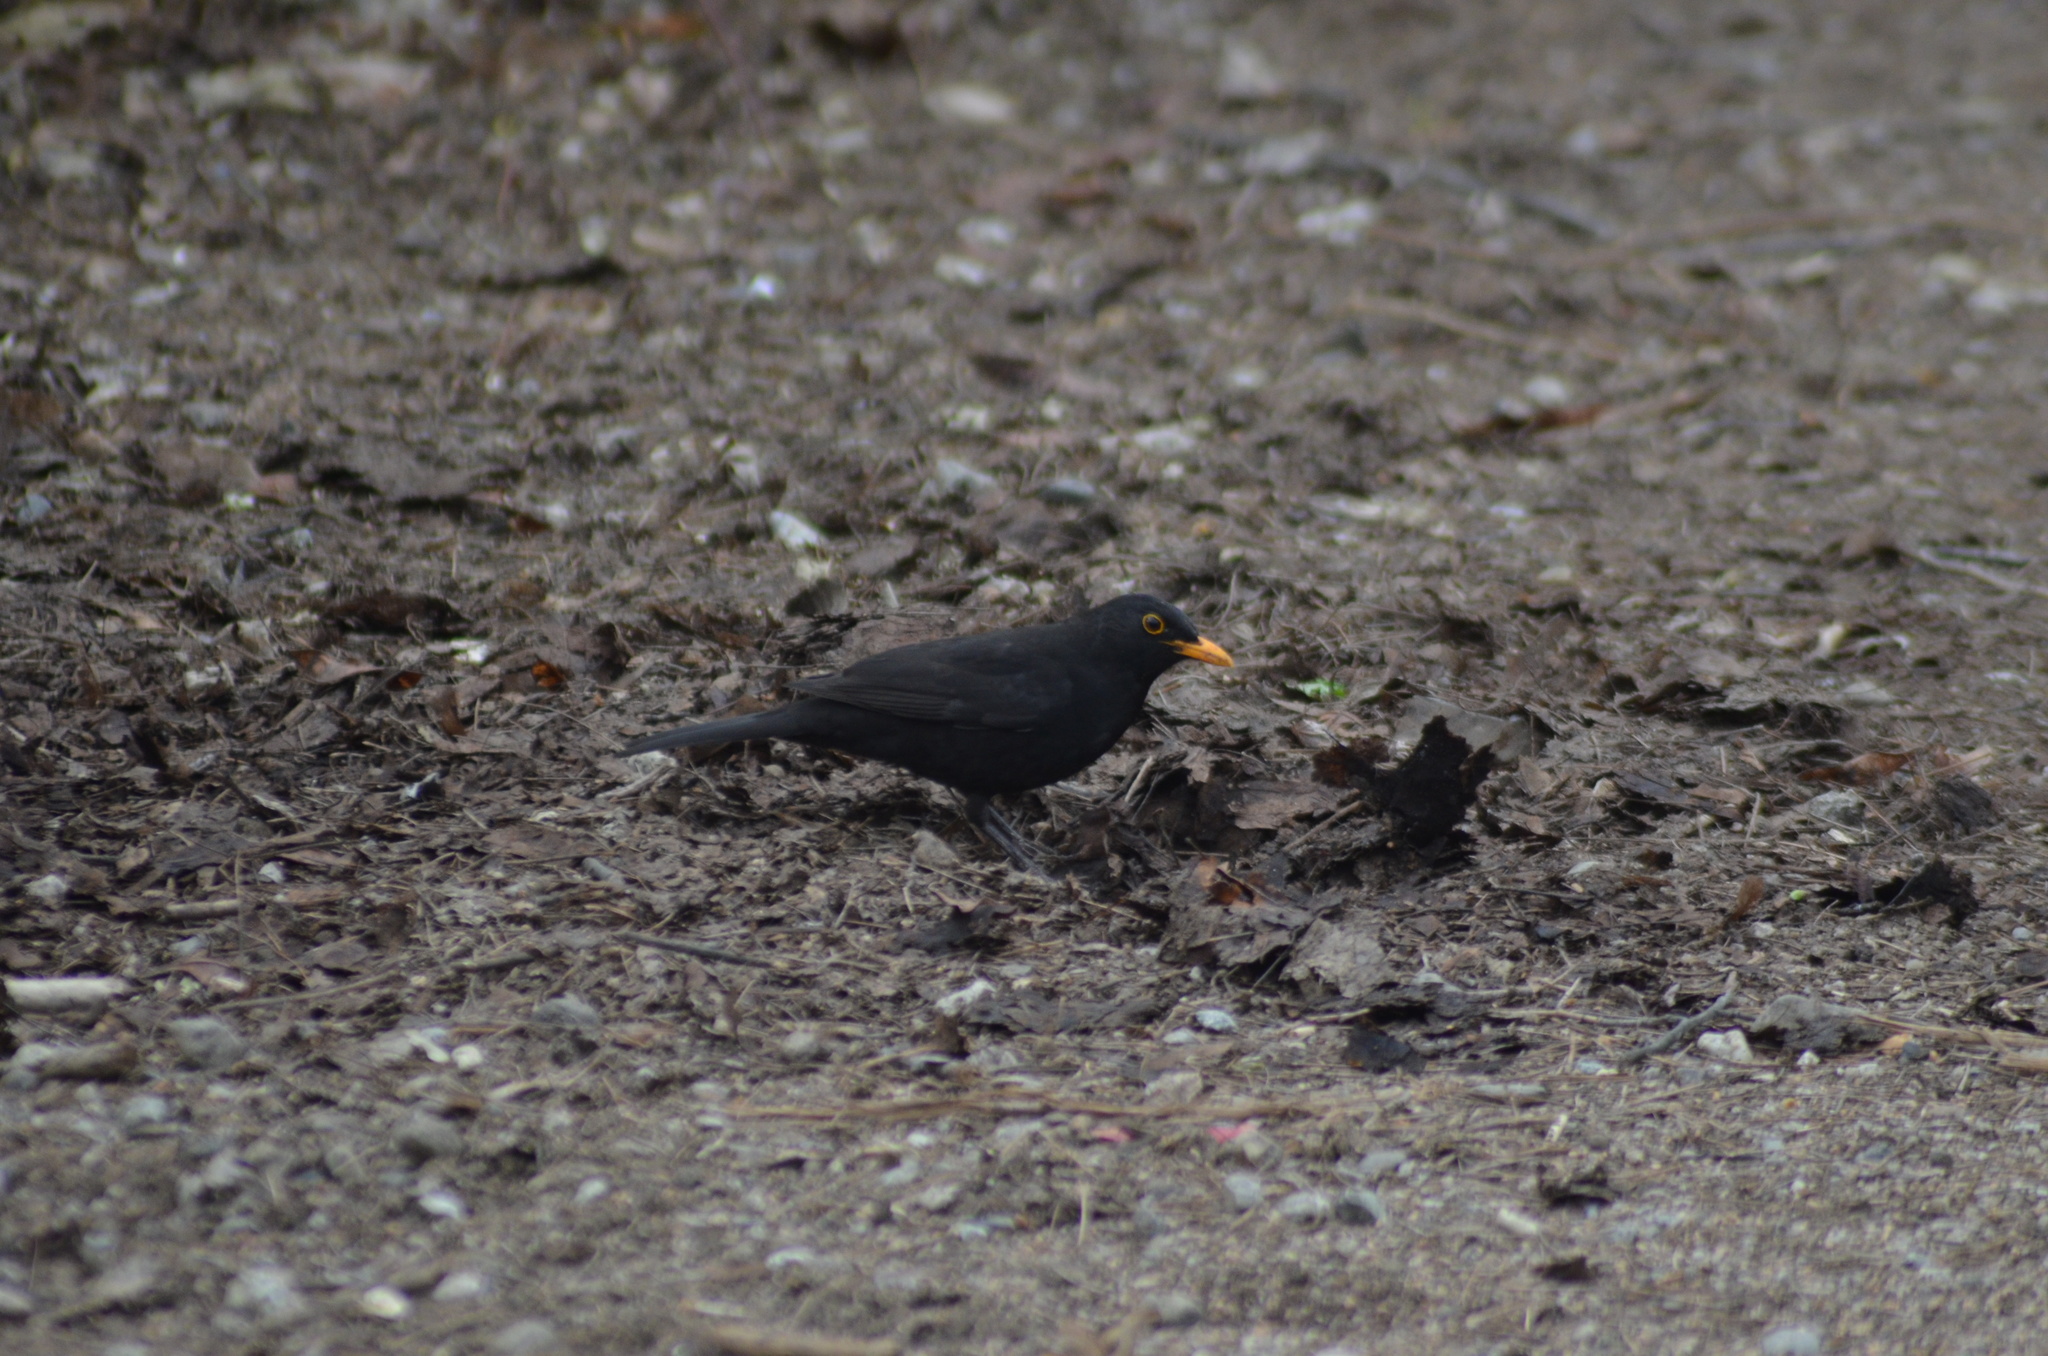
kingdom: Animalia
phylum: Chordata
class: Aves
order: Passeriformes
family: Turdidae
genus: Turdus
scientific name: Turdus merula
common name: Common blackbird
